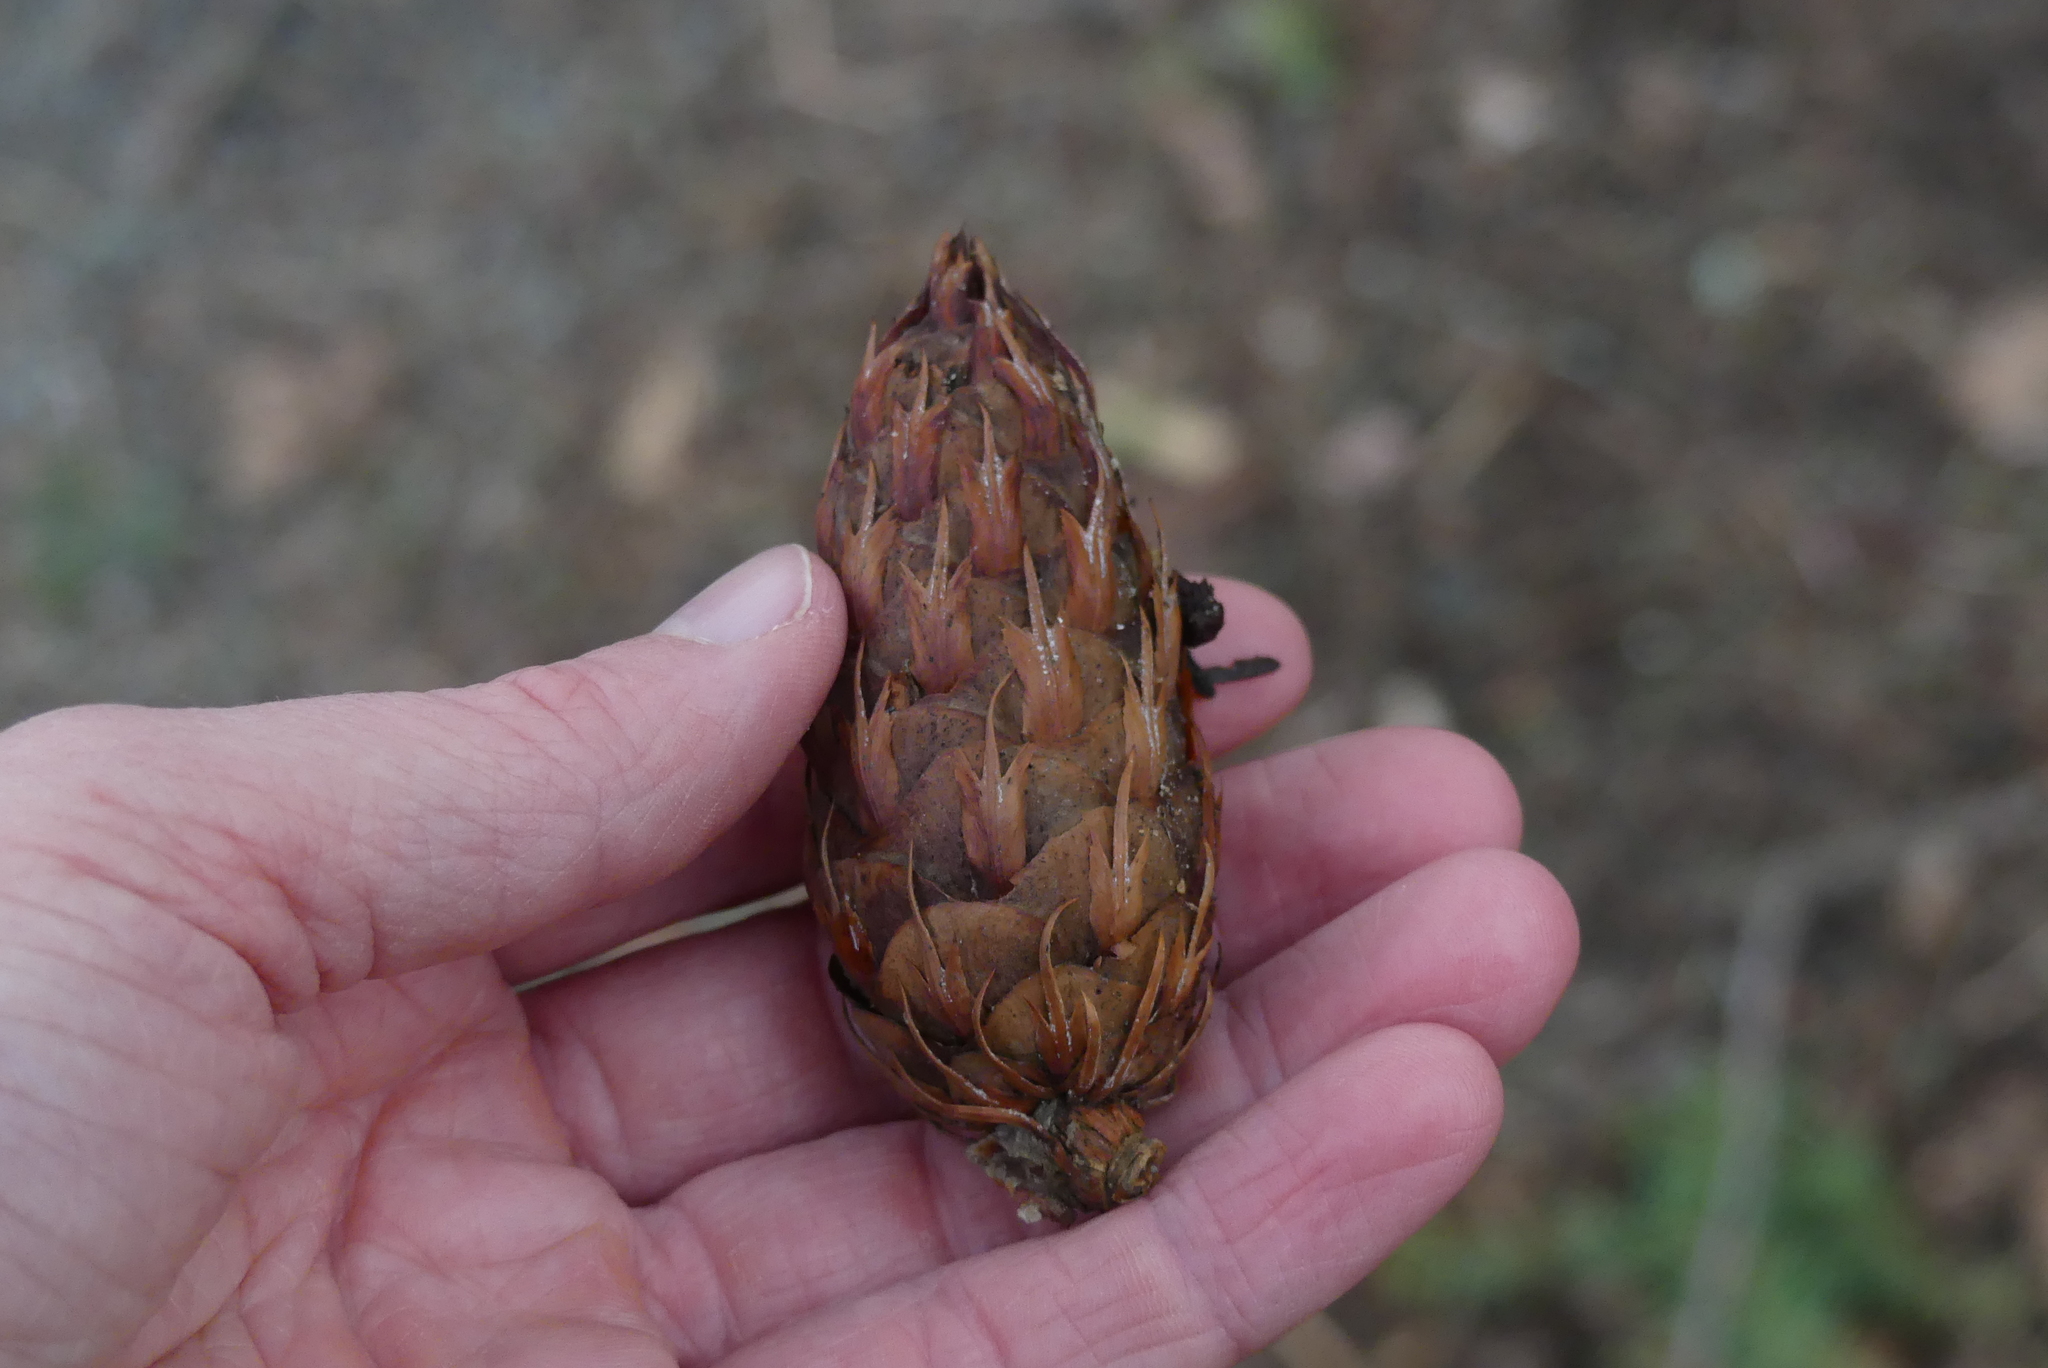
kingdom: Plantae
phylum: Tracheophyta
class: Pinopsida
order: Pinales
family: Pinaceae
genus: Pseudotsuga
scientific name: Pseudotsuga menziesii
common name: Douglas fir
